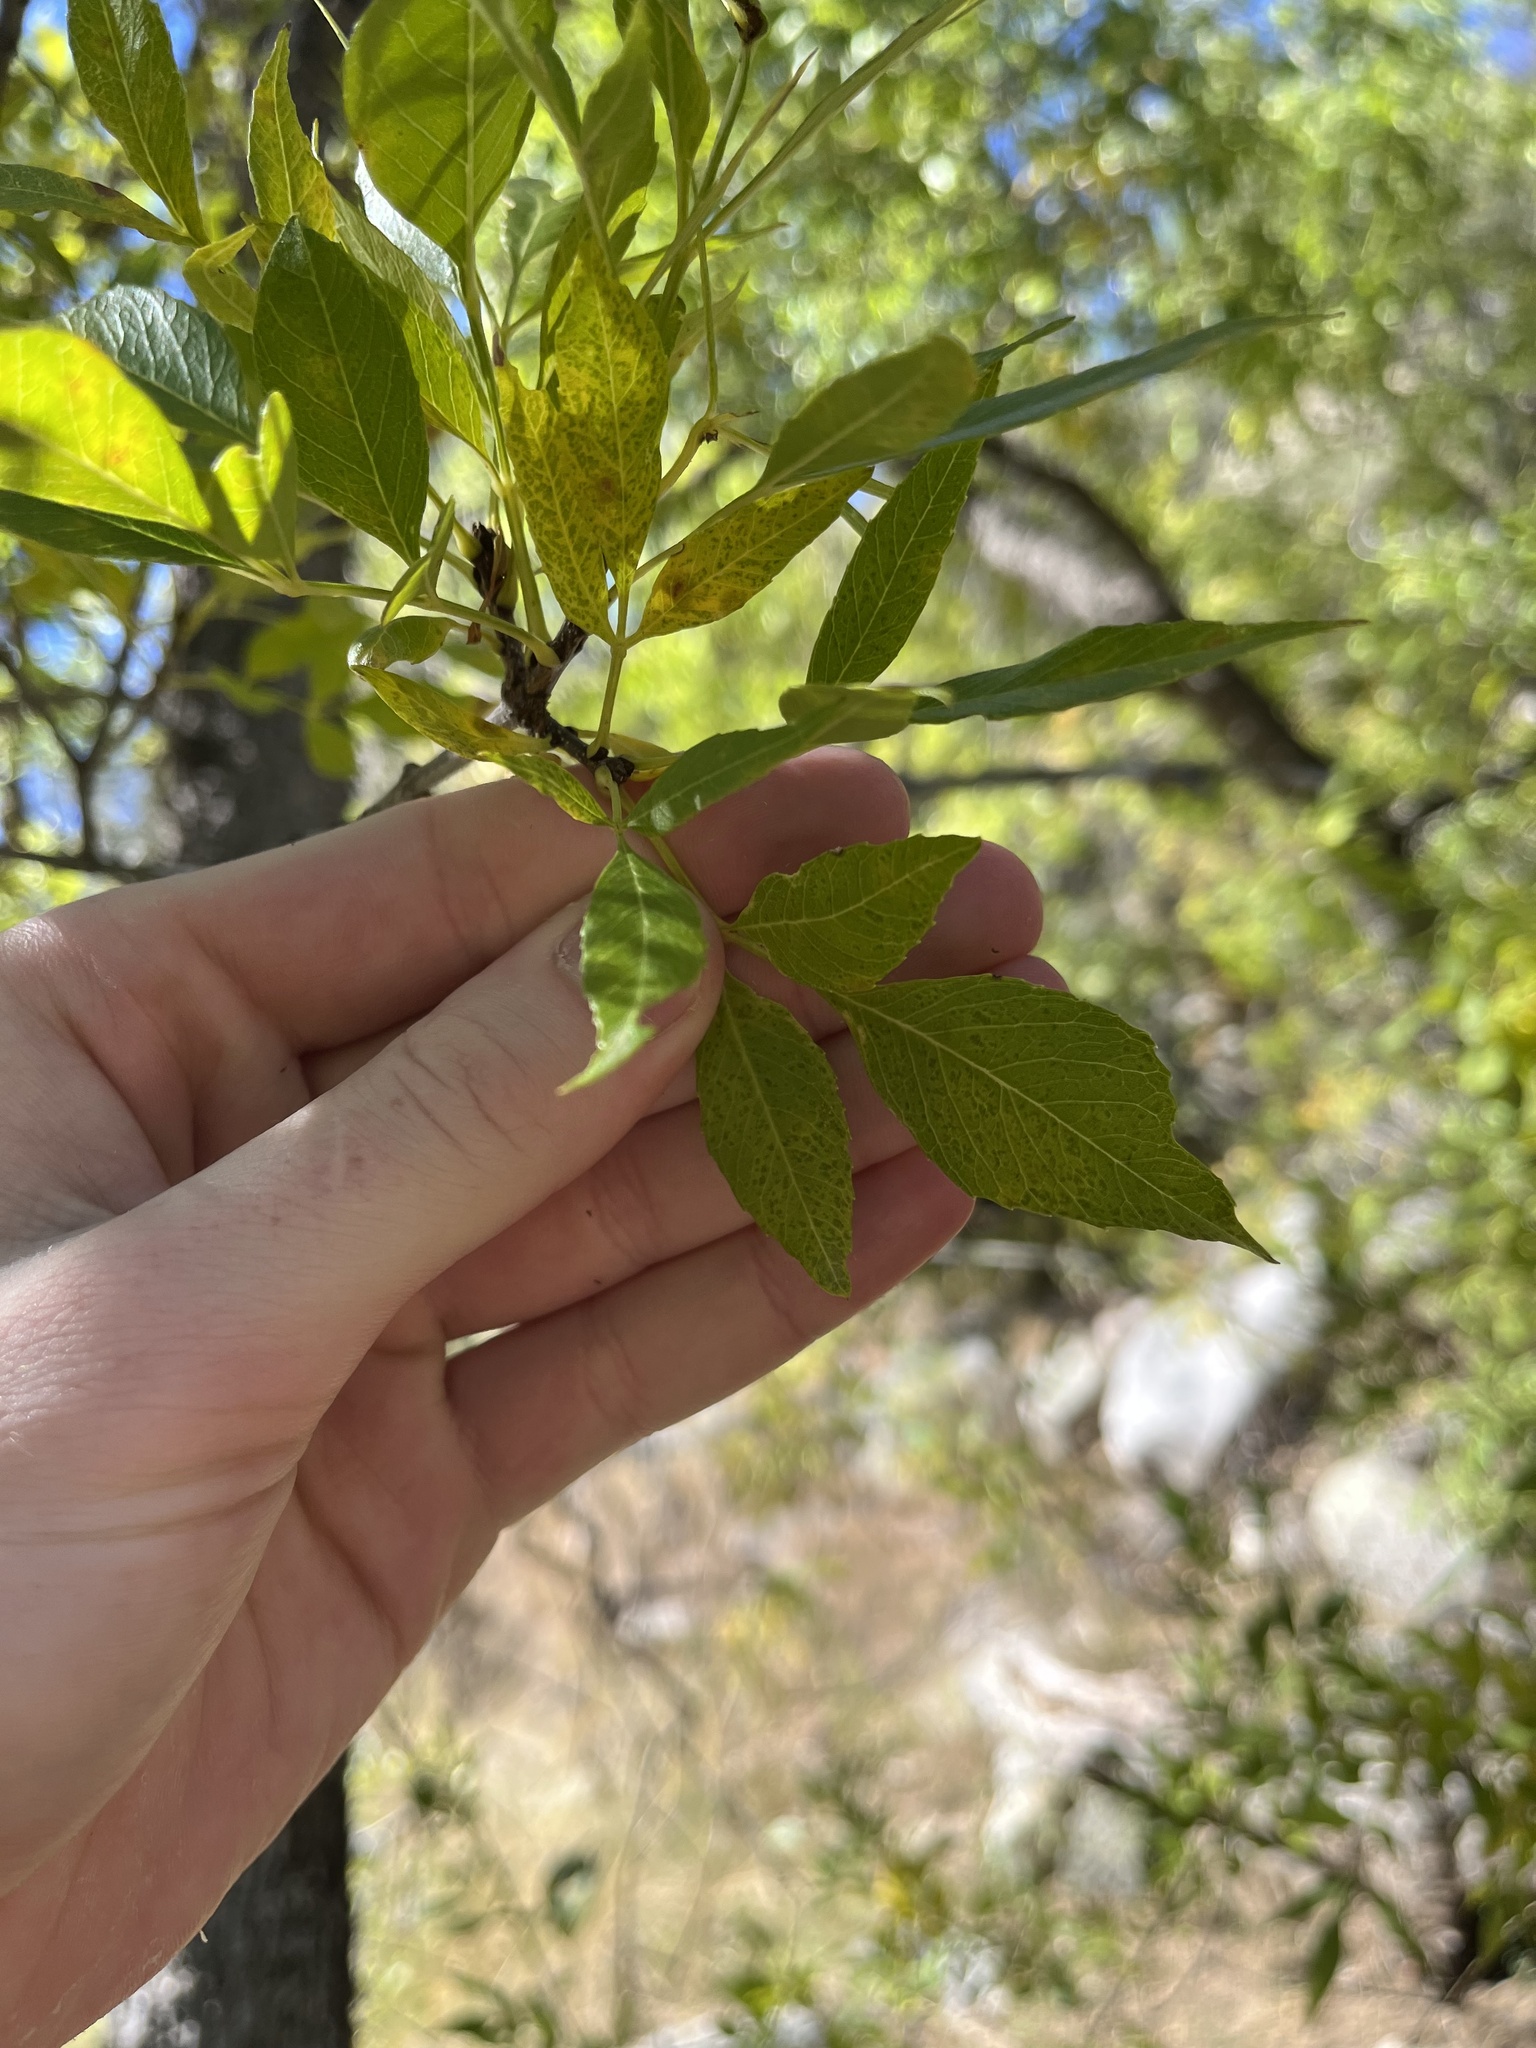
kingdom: Plantae
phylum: Tracheophyta
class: Magnoliopsida
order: Lamiales
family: Oleaceae
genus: Fraxinus
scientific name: Fraxinus velutina
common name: Arizon ash
